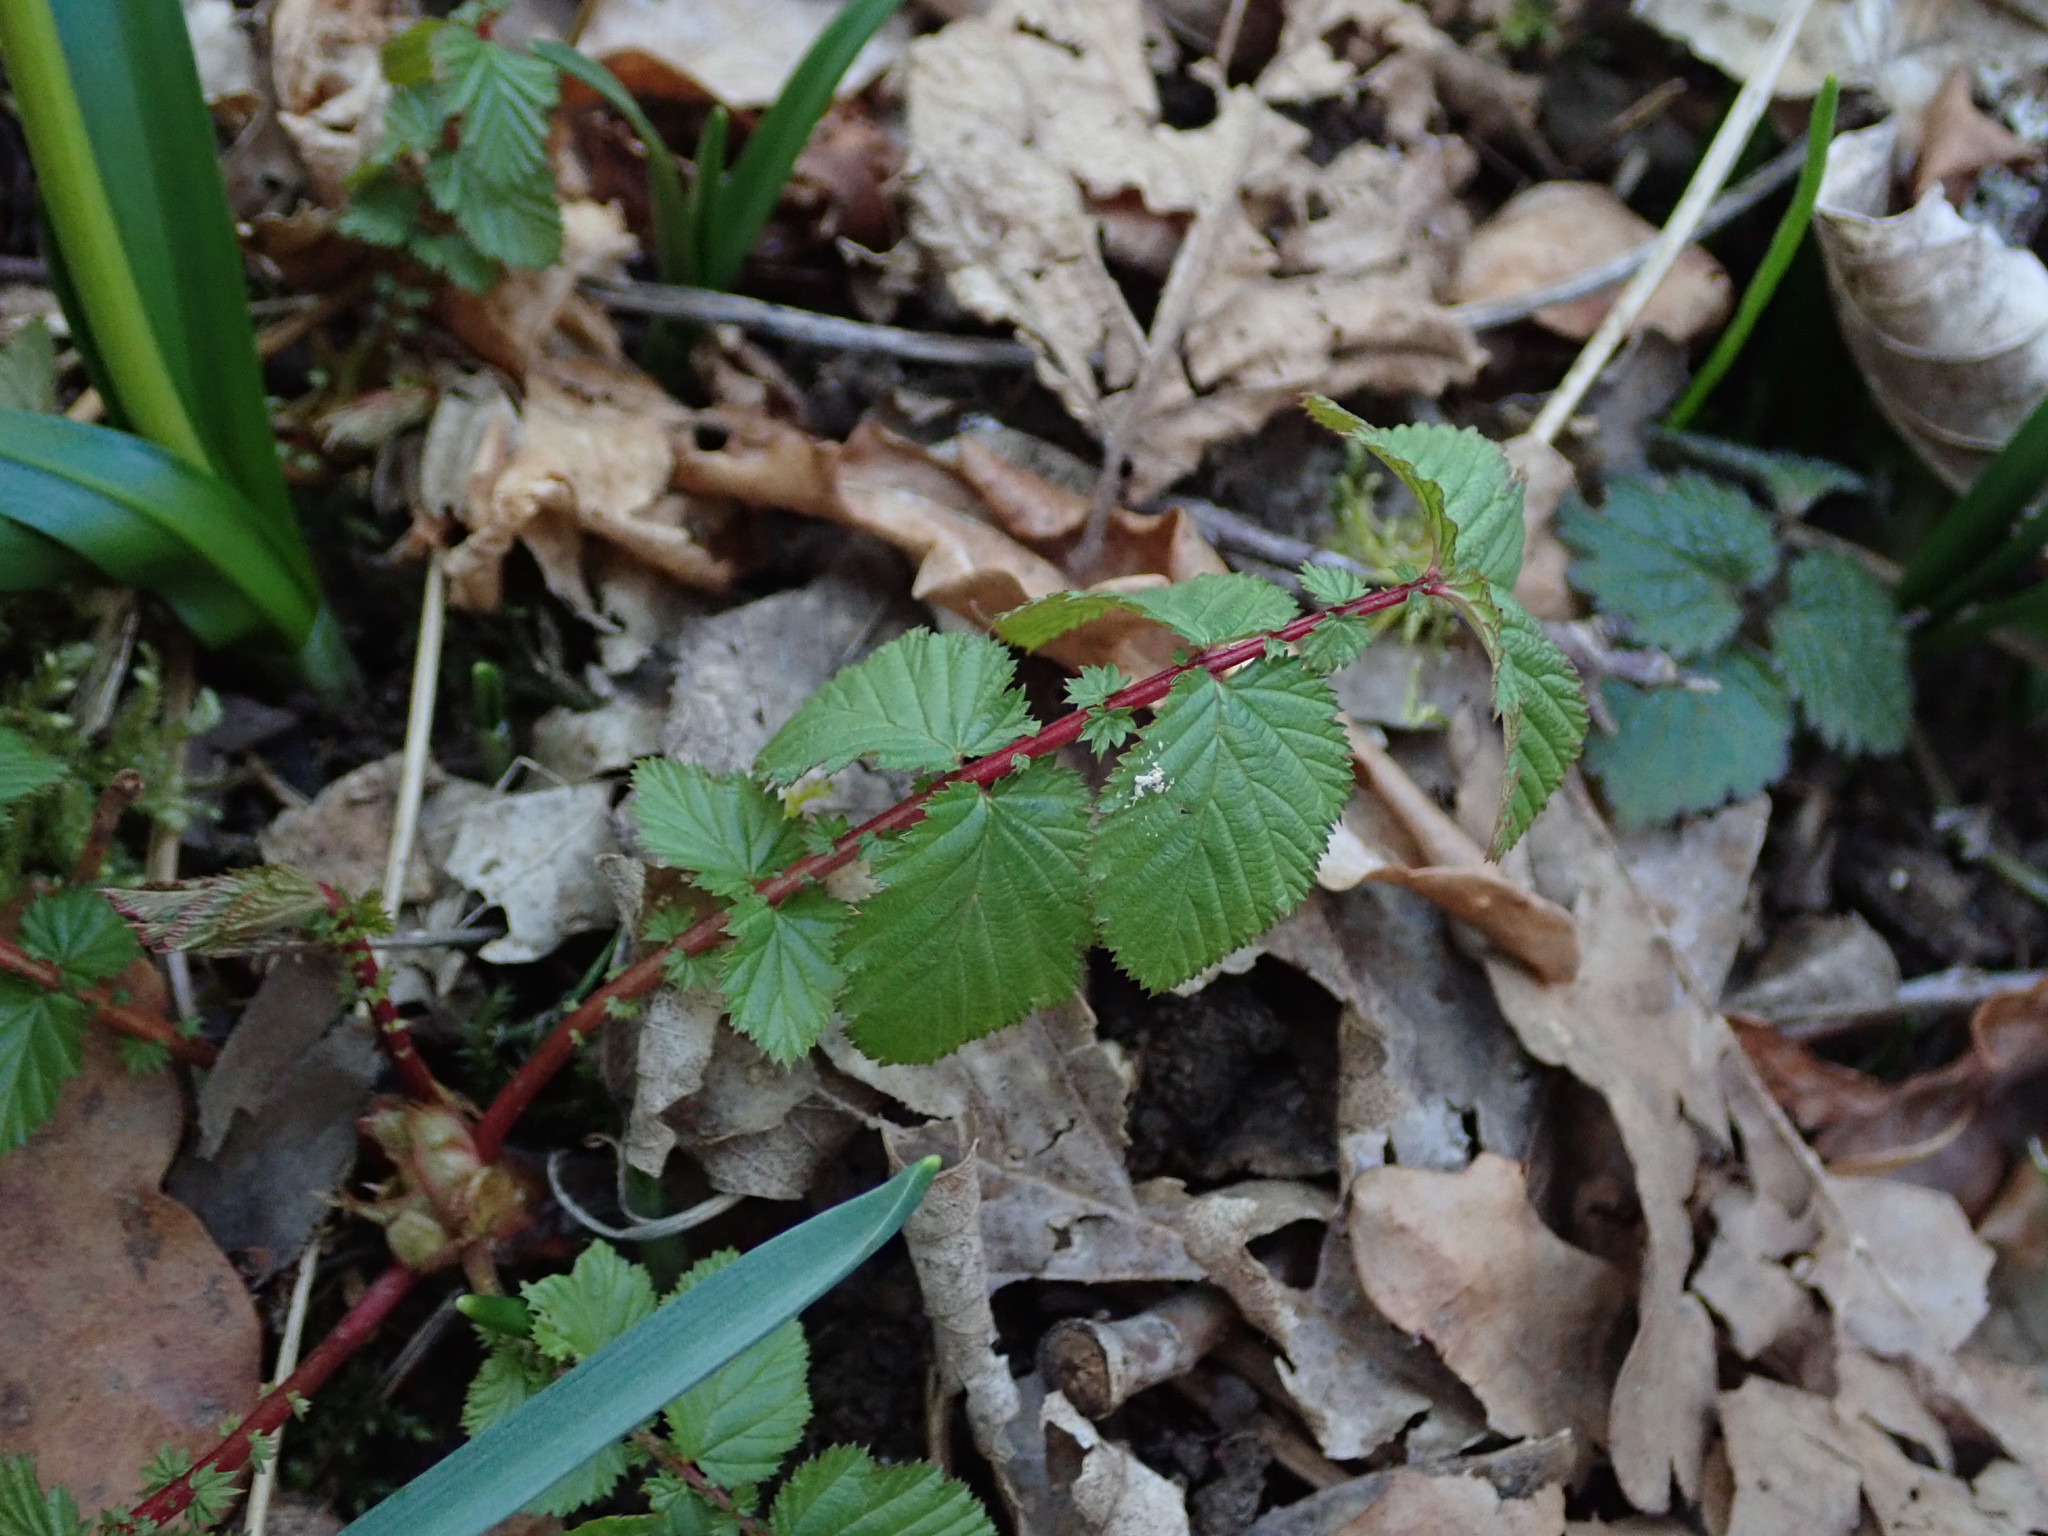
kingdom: Plantae
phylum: Tracheophyta
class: Magnoliopsida
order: Rosales
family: Rosaceae
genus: Filipendula
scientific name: Filipendula ulmaria
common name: Meadowsweet
